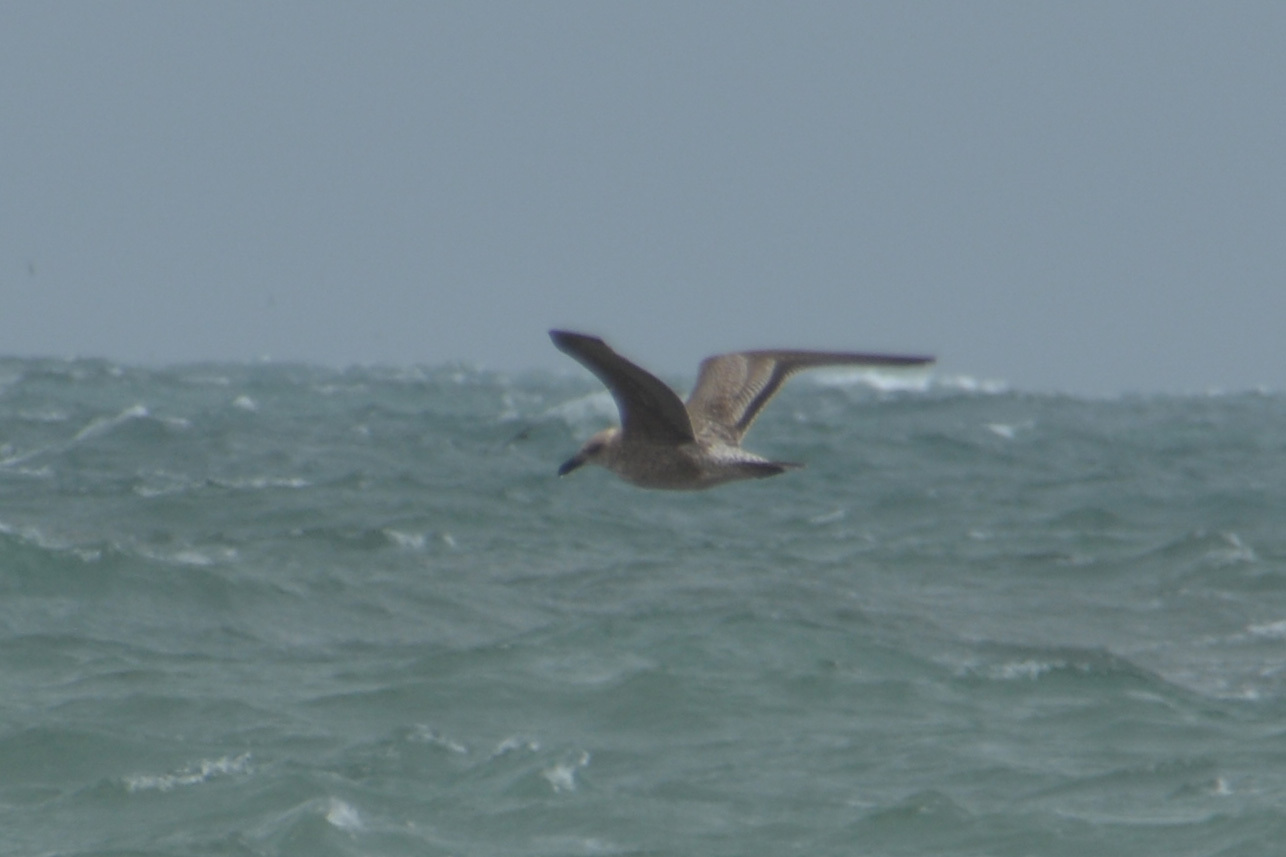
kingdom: Animalia
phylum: Chordata
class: Aves
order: Charadriiformes
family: Laridae
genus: Larus
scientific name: Larus dominicanus
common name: Kelp gull
